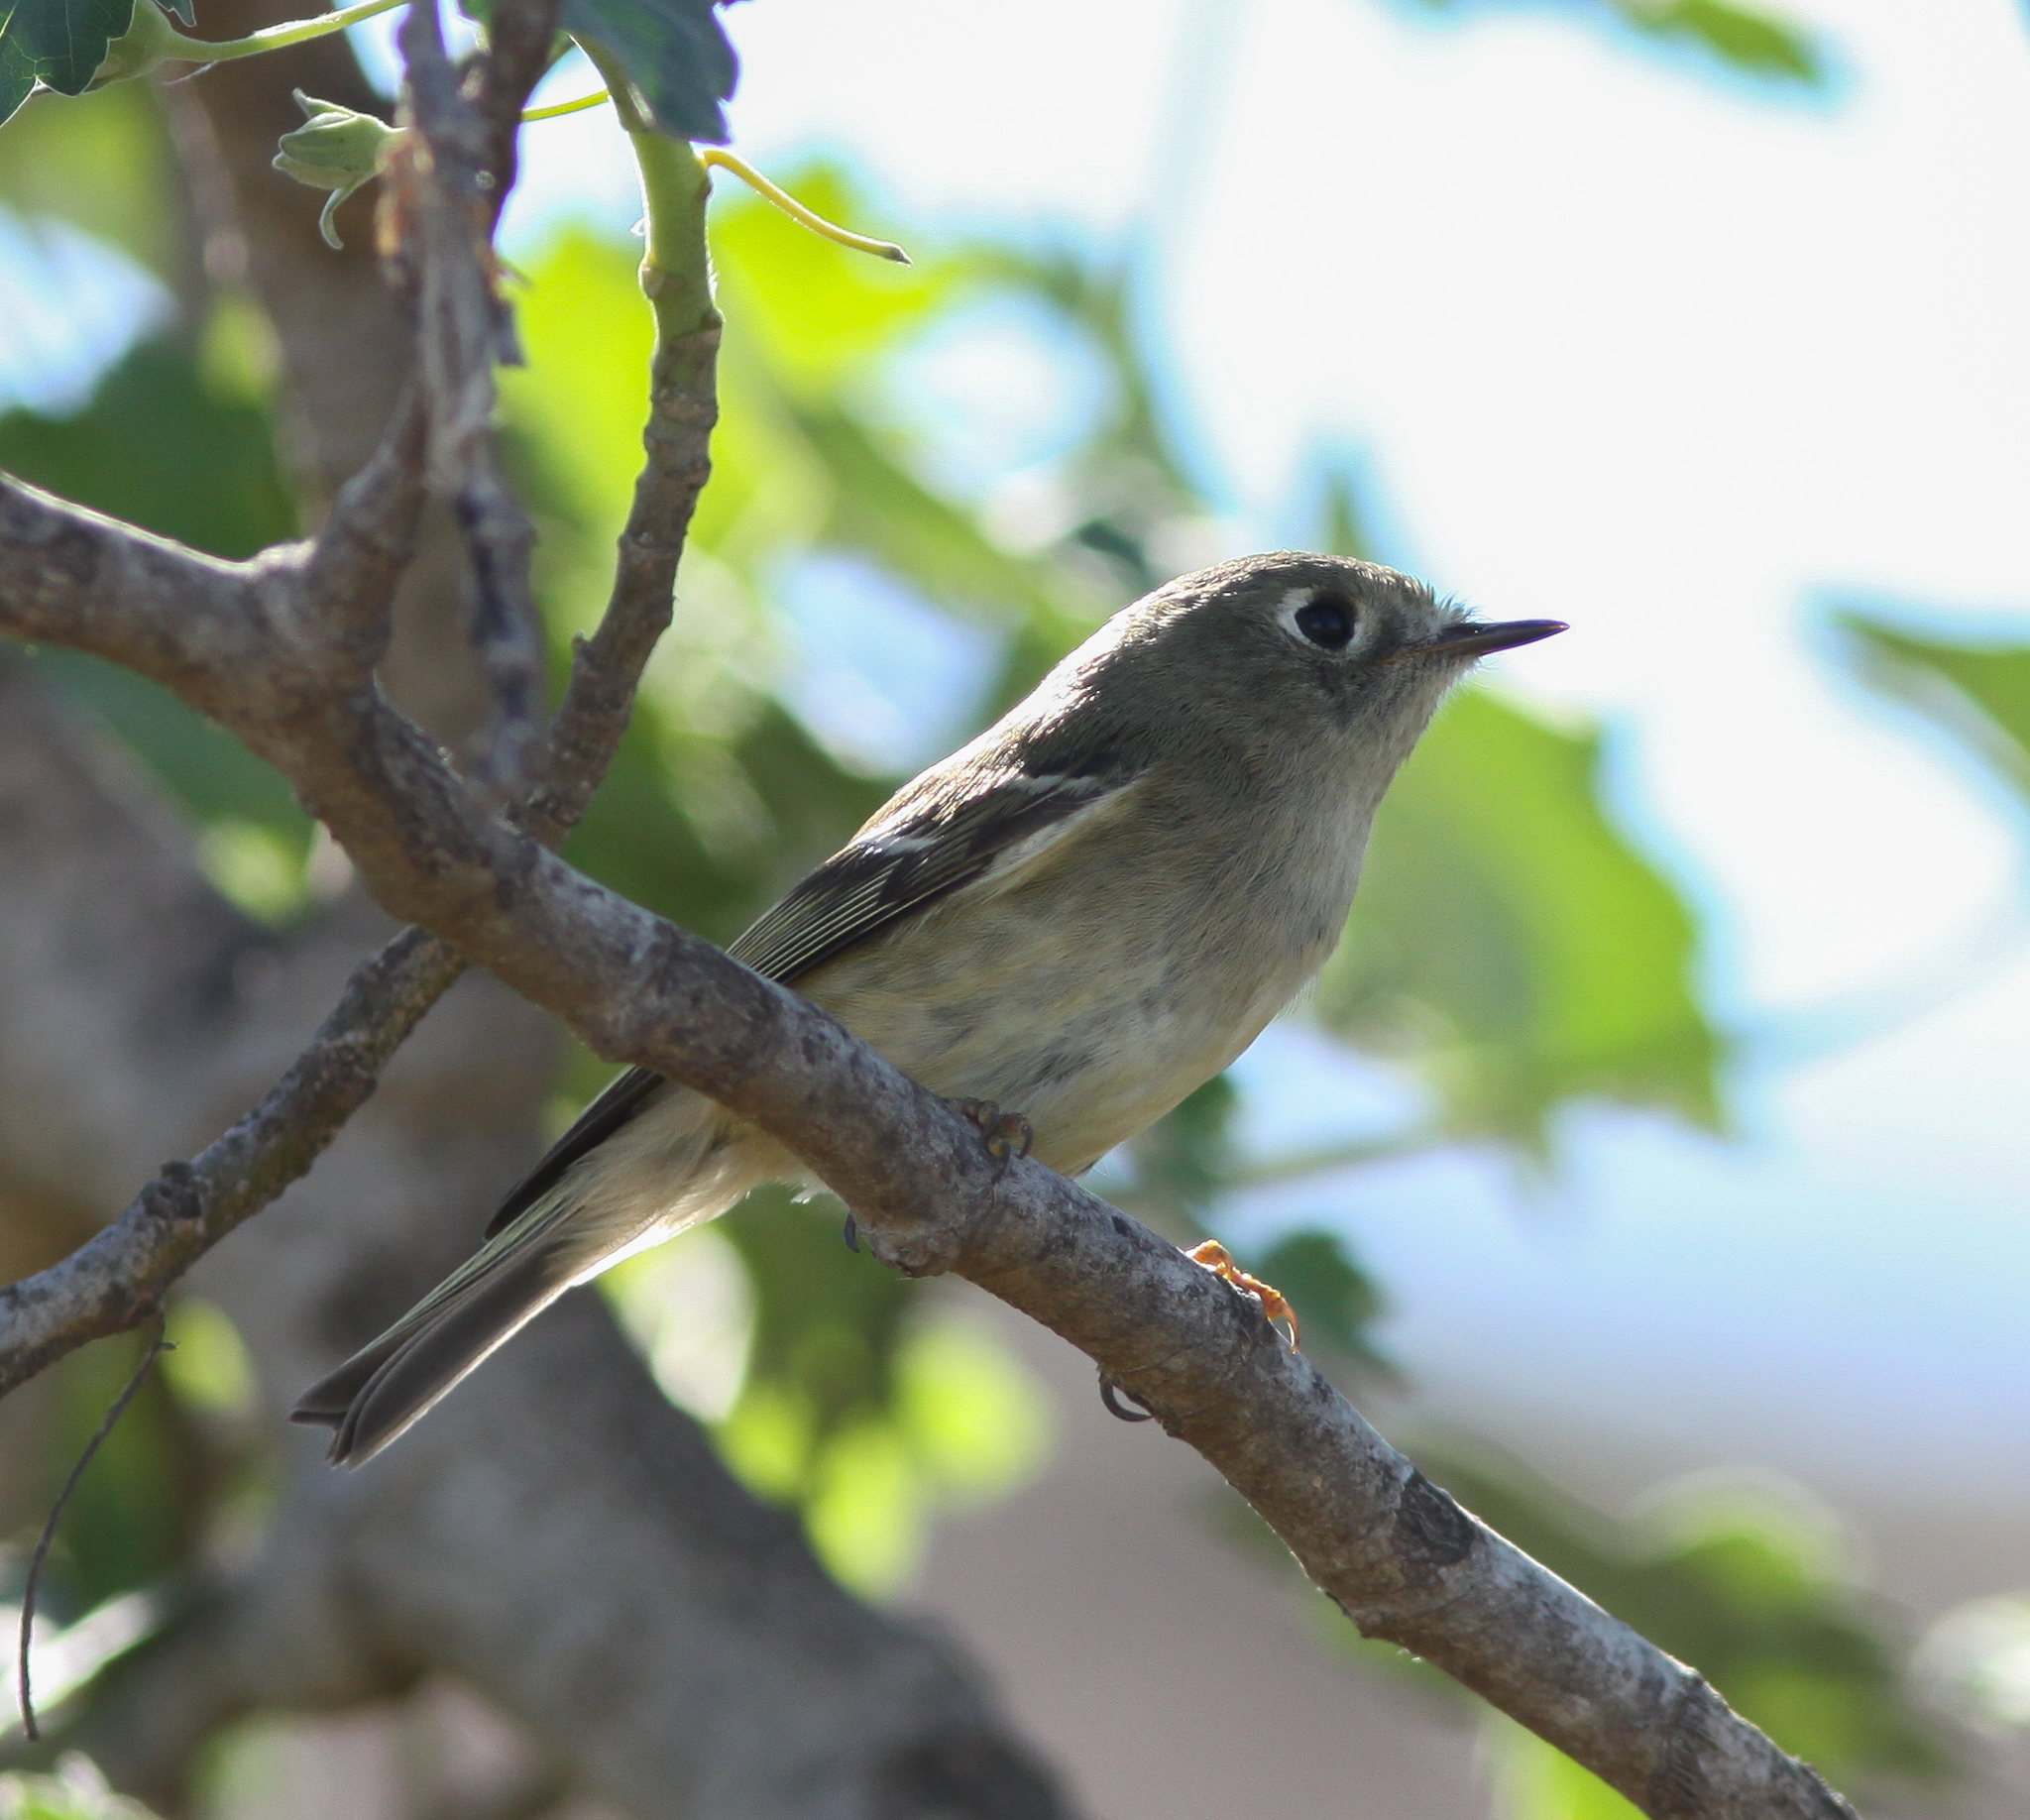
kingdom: Animalia
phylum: Chordata
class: Aves
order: Passeriformes
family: Regulidae
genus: Regulus
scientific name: Regulus calendula
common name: Ruby-crowned kinglet
